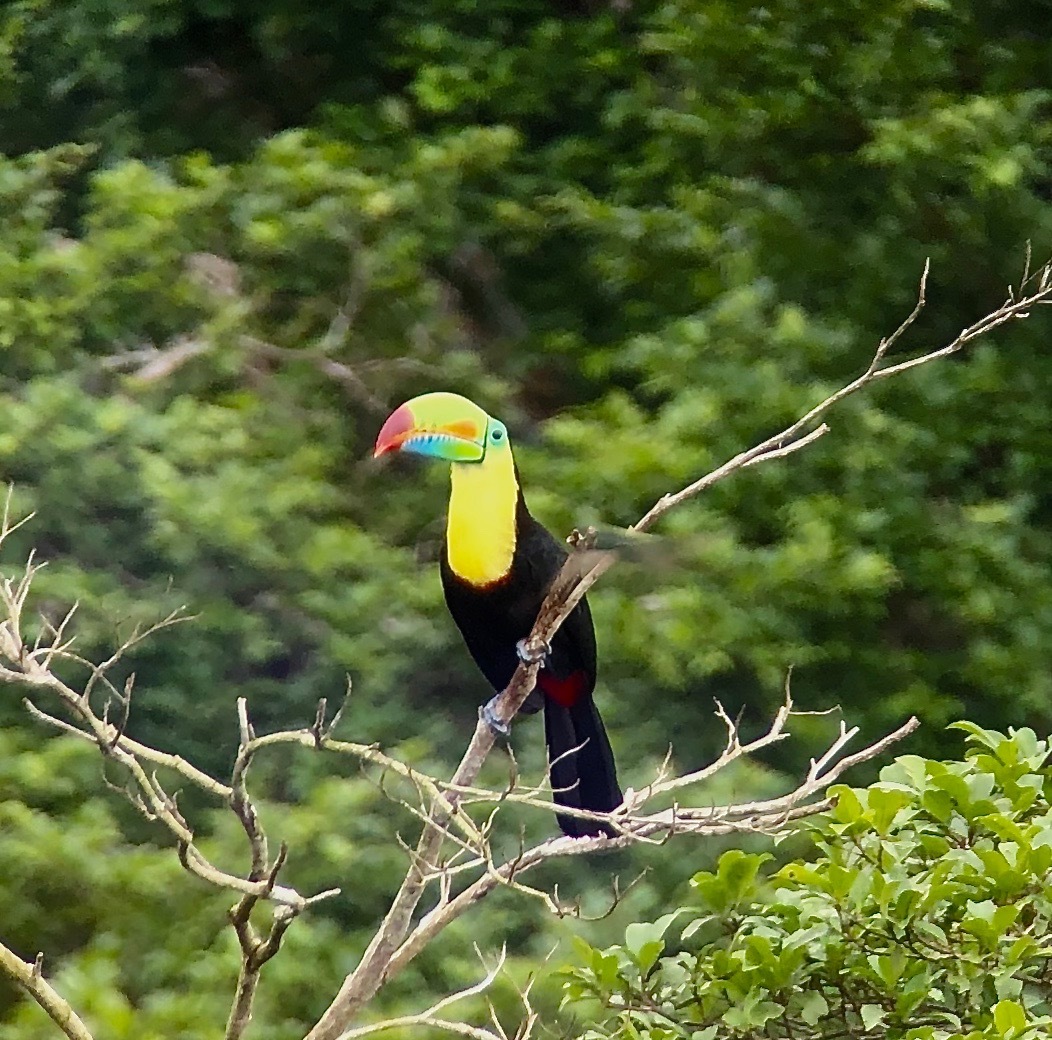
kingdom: Animalia
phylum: Chordata
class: Aves
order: Piciformes
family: Ramphastidae
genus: Ramphastos
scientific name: Ramphastos sulfuratus
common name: Keel-billed toucan
